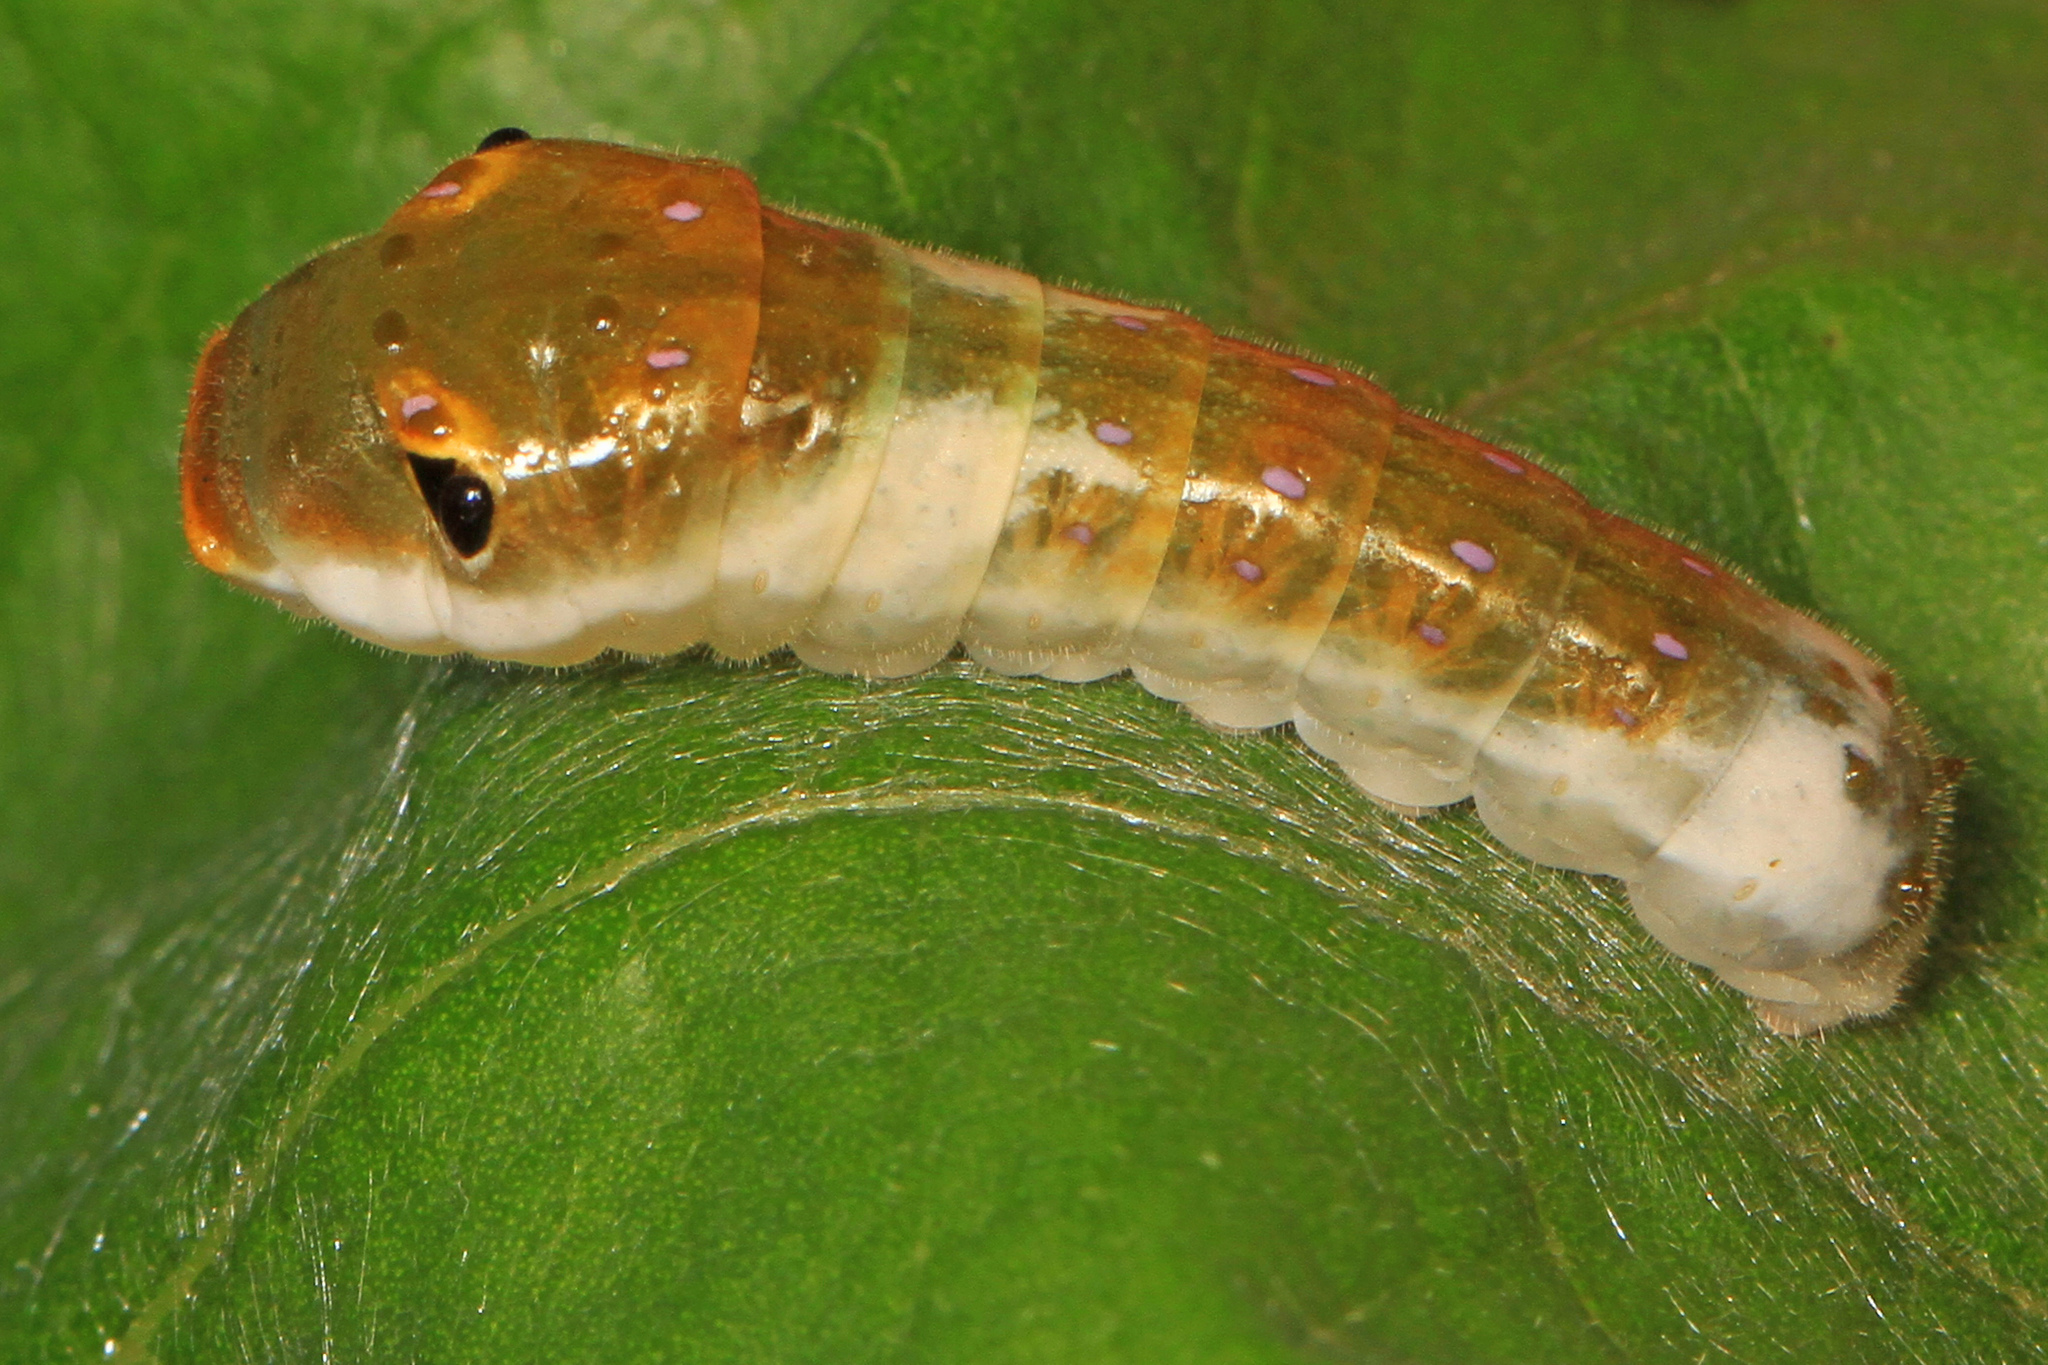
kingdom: Animalia
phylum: Arthropoda
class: Insecta
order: Lepidoptera
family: Papilionidae
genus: Papilio
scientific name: Papilio troilus
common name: Spicebush swallowtail
